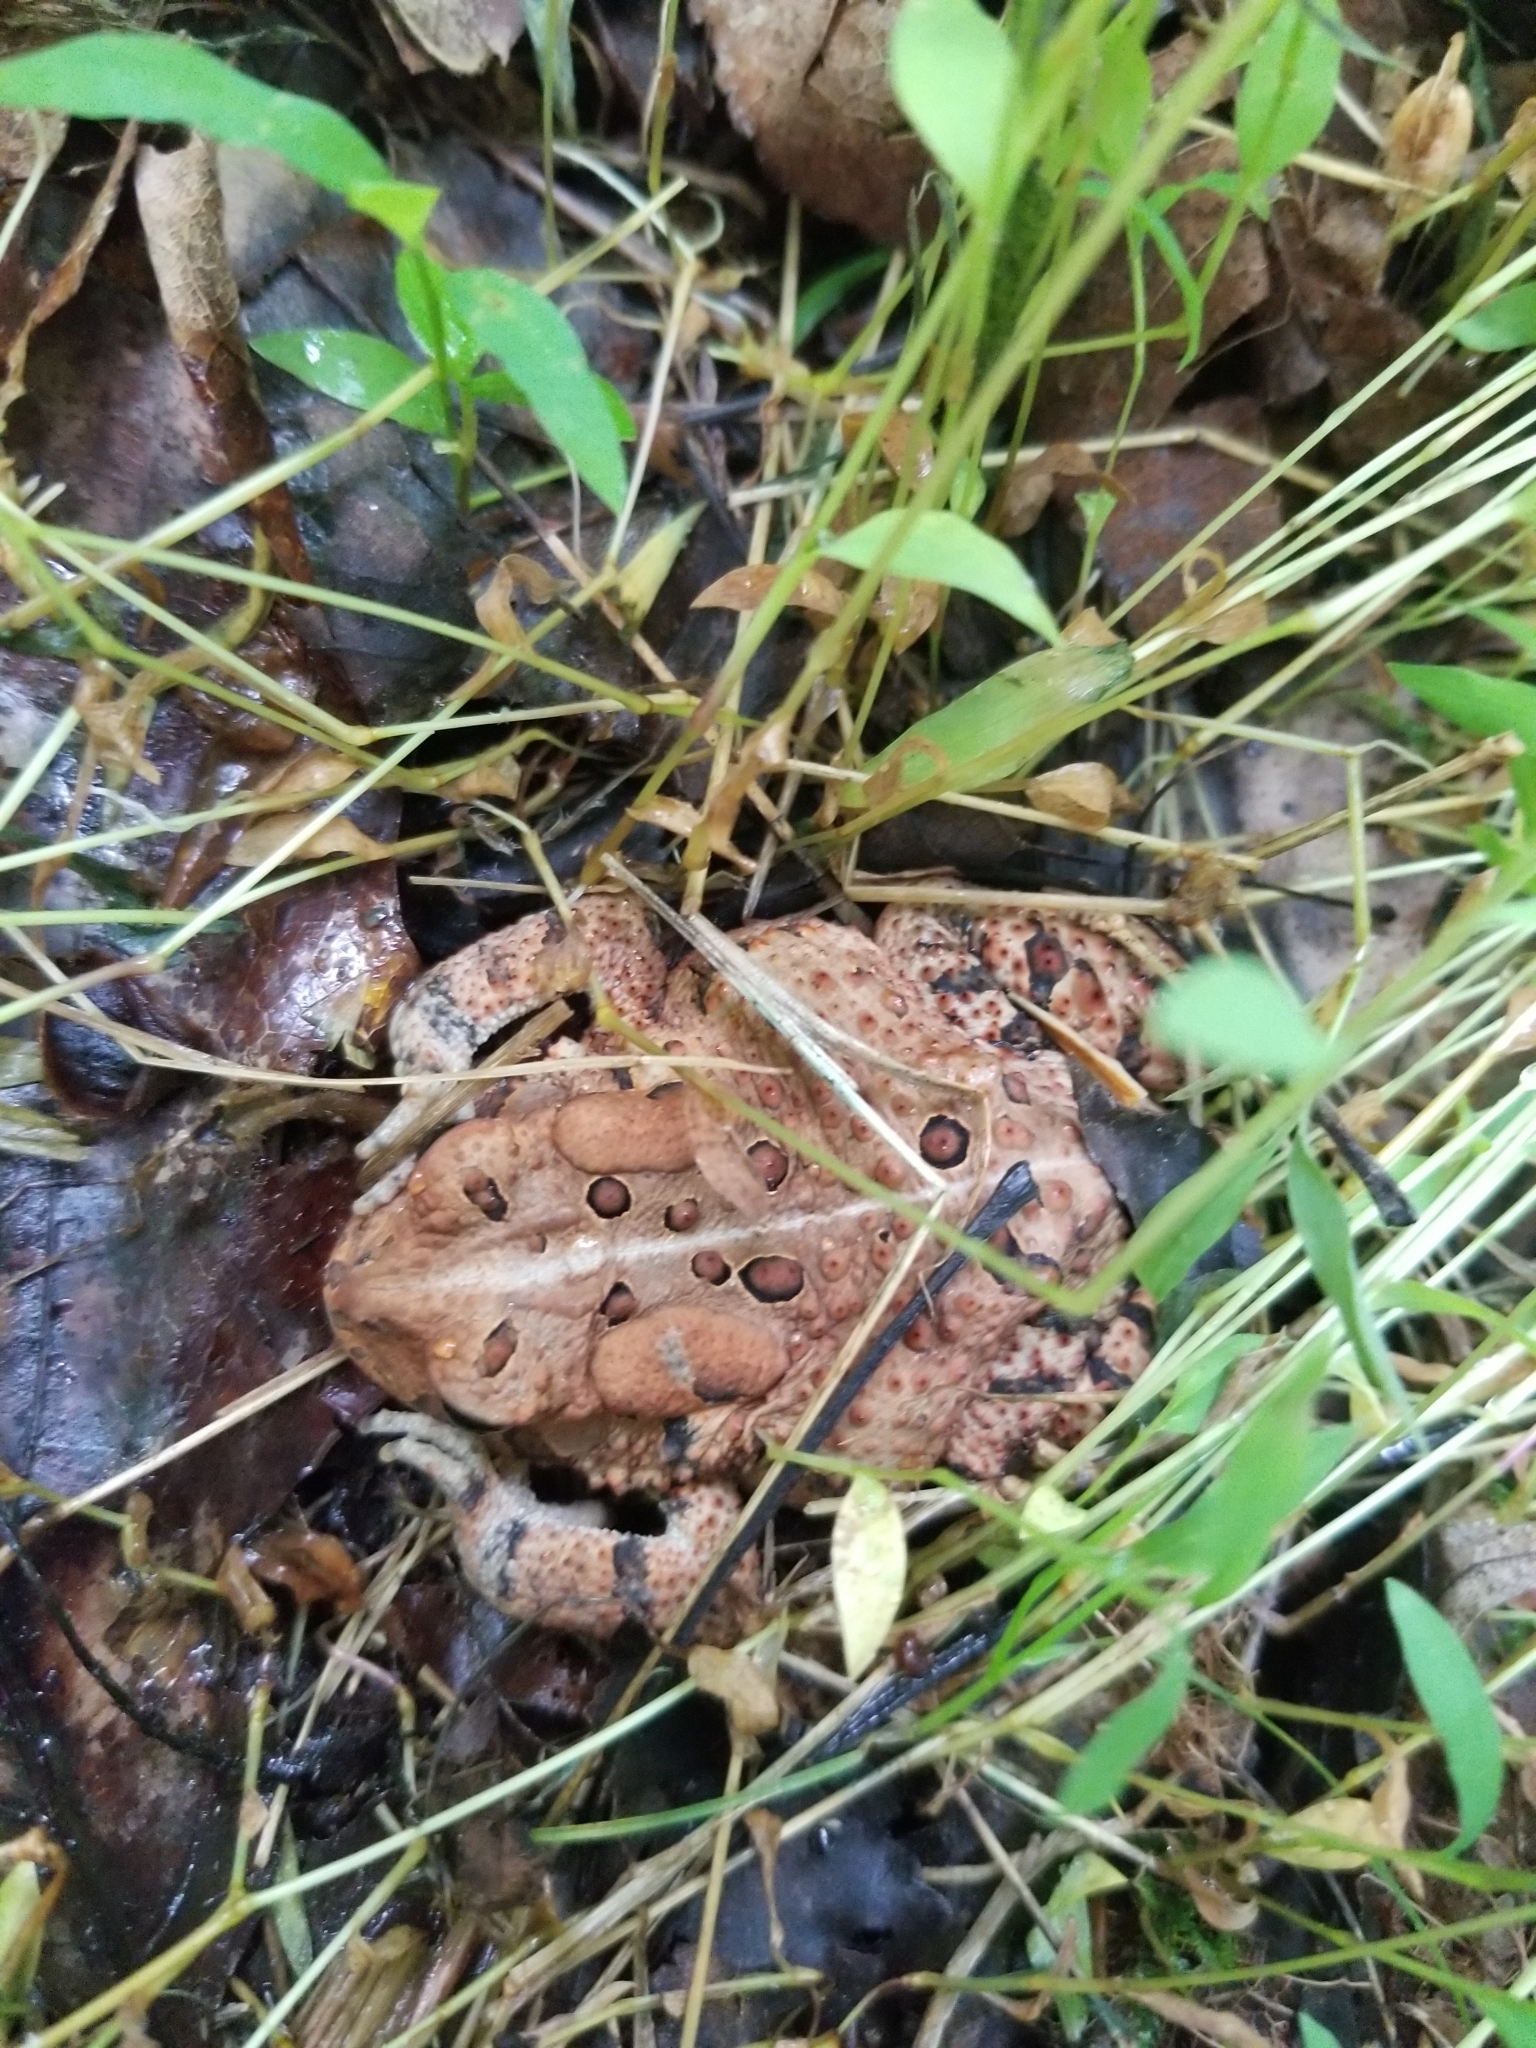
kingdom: Animalia
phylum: Chordata
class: Amphibia
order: Anura
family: Bufonidae
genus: Anaxyrus
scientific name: Anaxyrus americanus
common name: American toad
